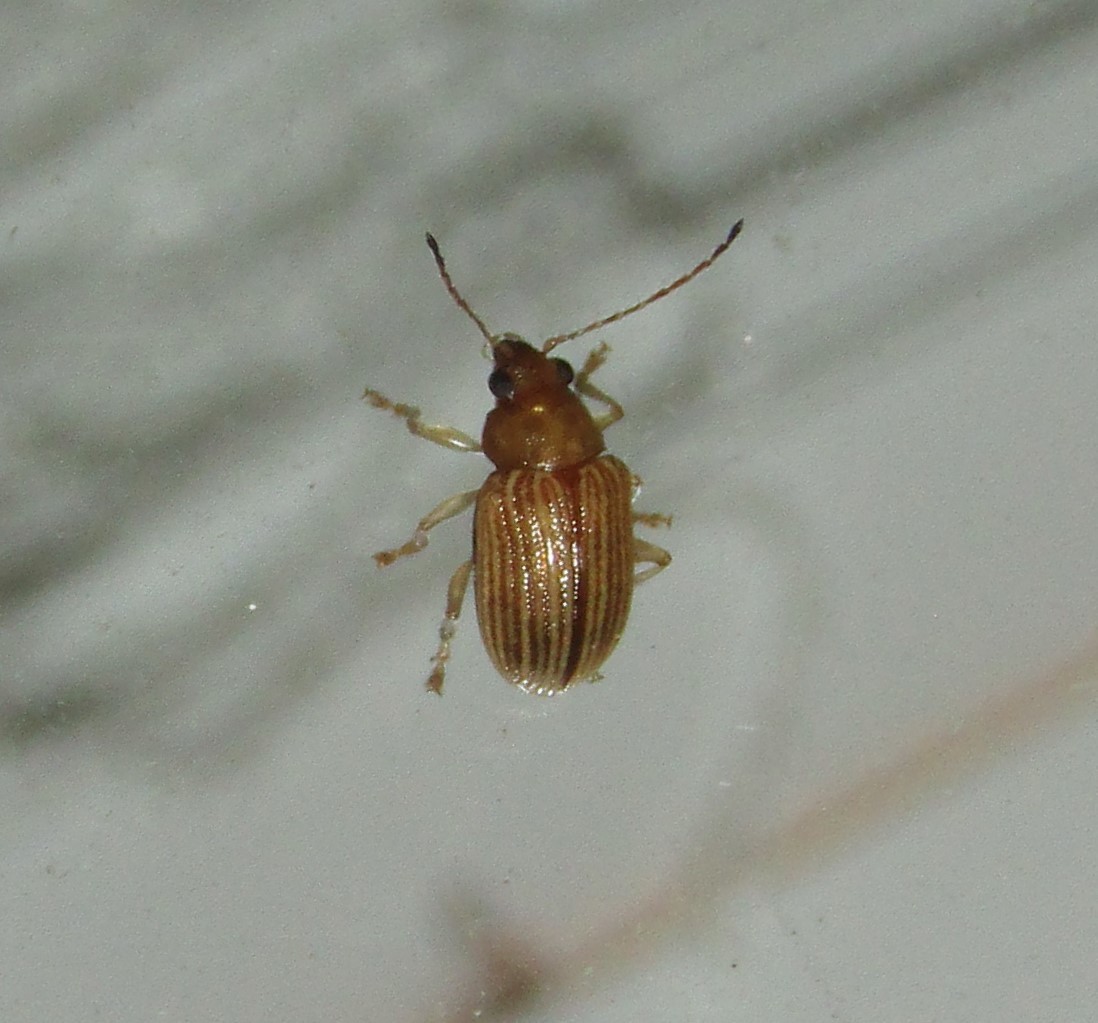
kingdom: Animalia
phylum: Arthropoda
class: Insecta
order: Coleoptera
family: Chrysomelidae
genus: Colaspis
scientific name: Colaspis brunnea
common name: Grape colaspis
